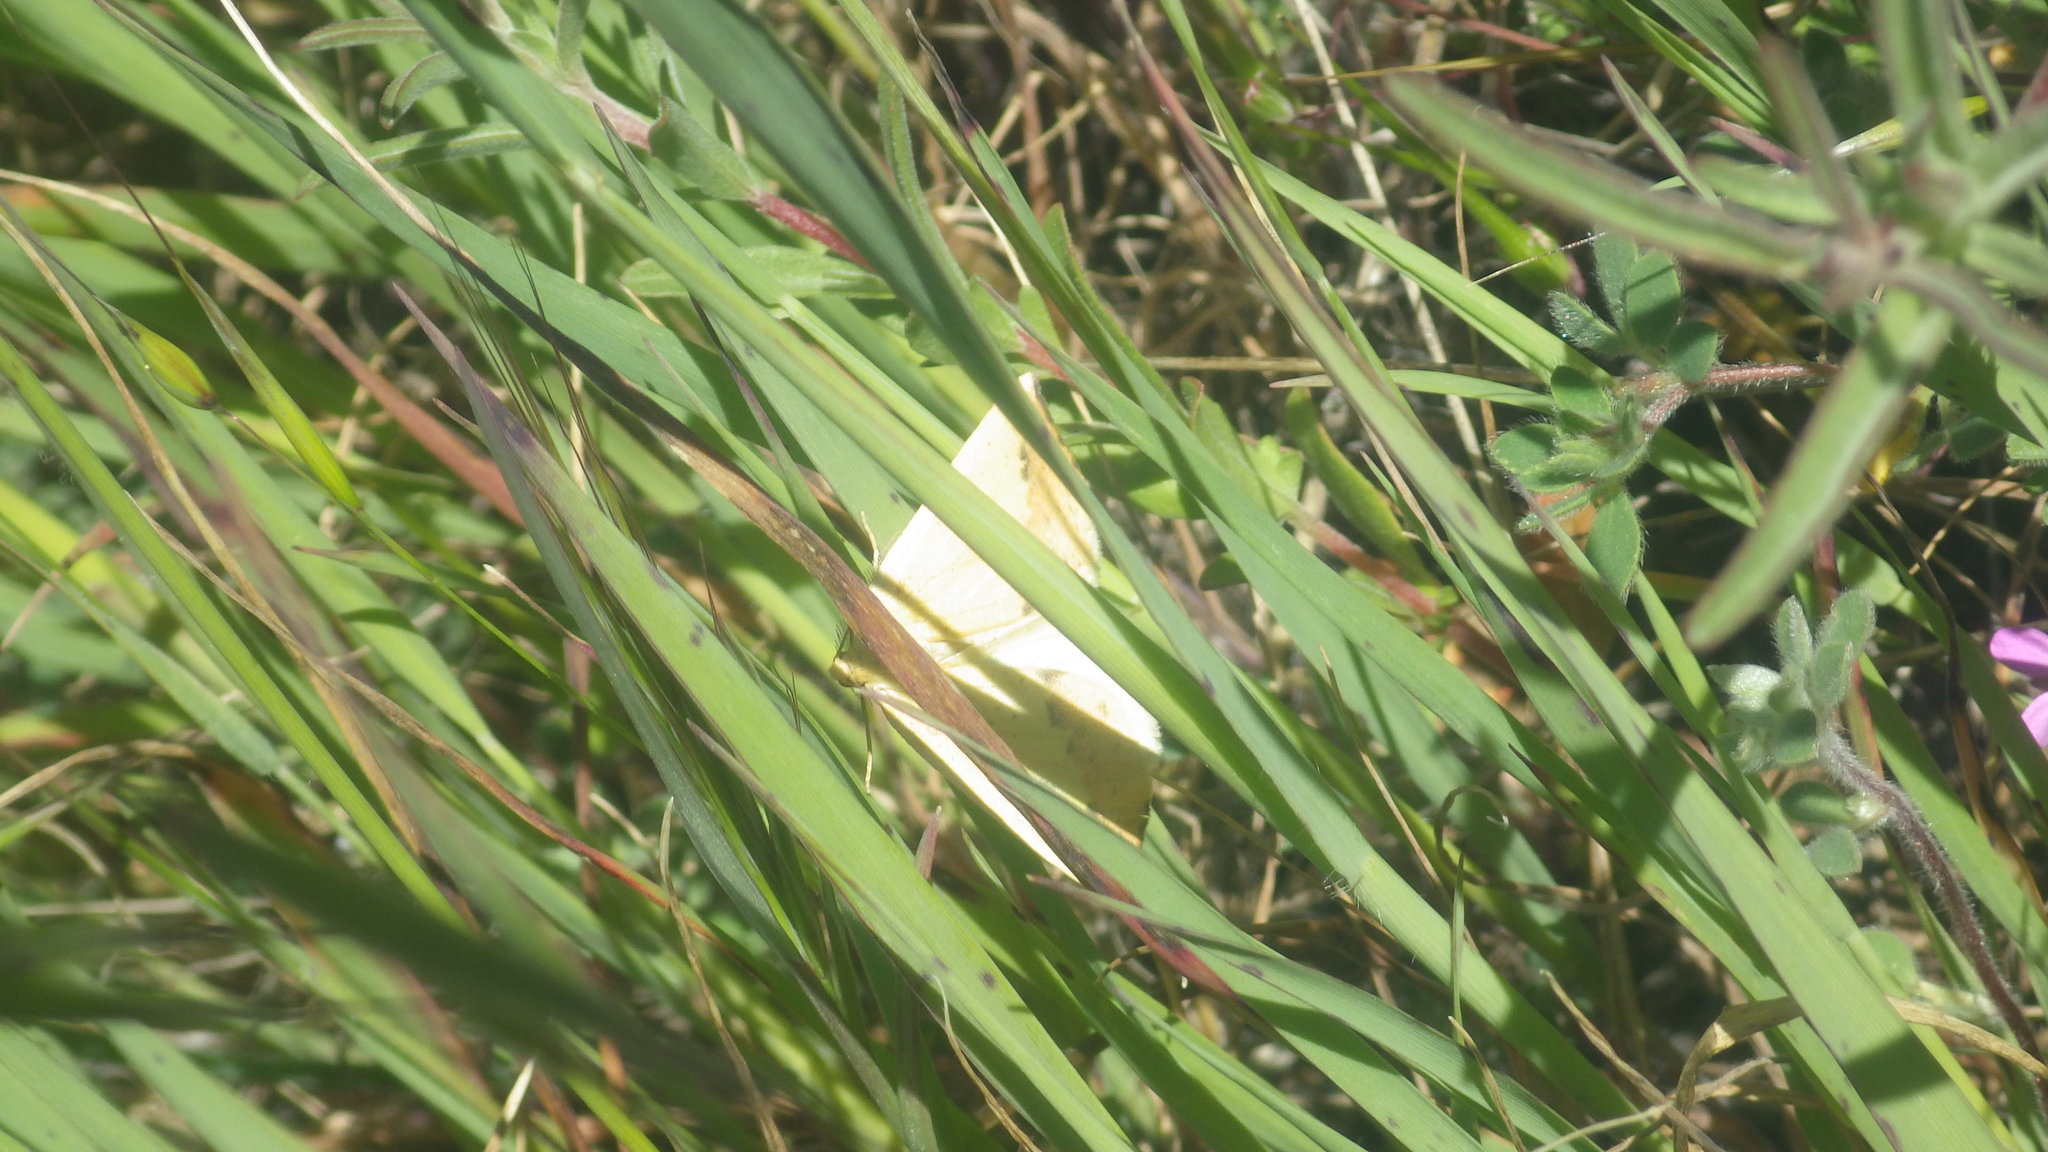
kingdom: Animalia
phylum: Arthropoda
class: Insecta
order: Lepidoptera
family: Geometridae
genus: Neoterpes
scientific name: Neoterpes edwardsata
